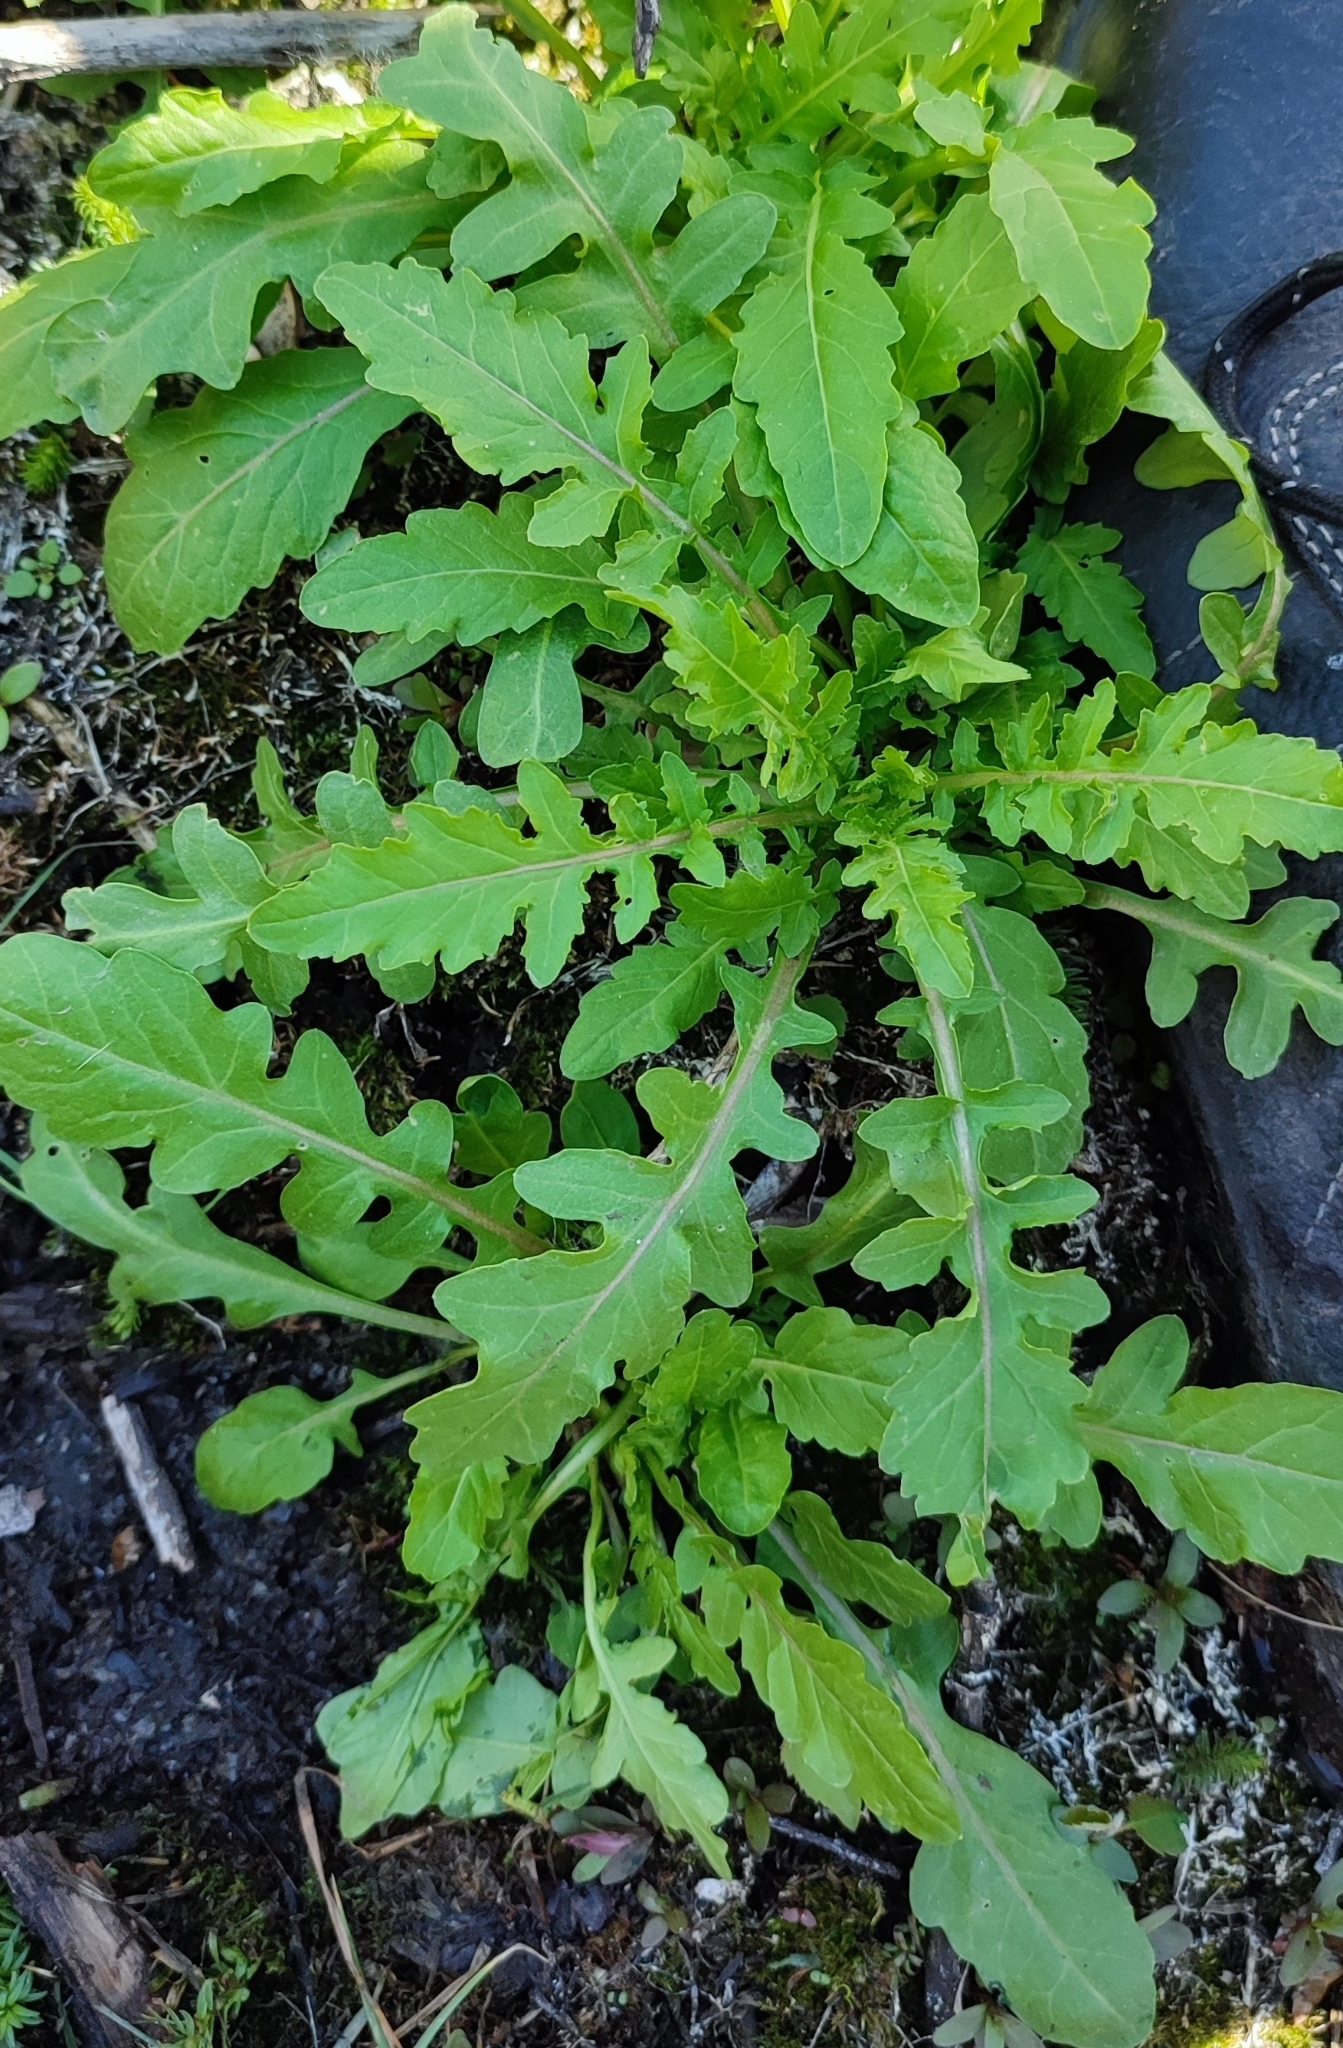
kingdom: Plantae
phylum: Tracheophyta
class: Magnoliopsida
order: Brassicales
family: Brassicaceae
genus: Rorippa
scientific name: Rorippa palustris
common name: Marsh yellow-cress
